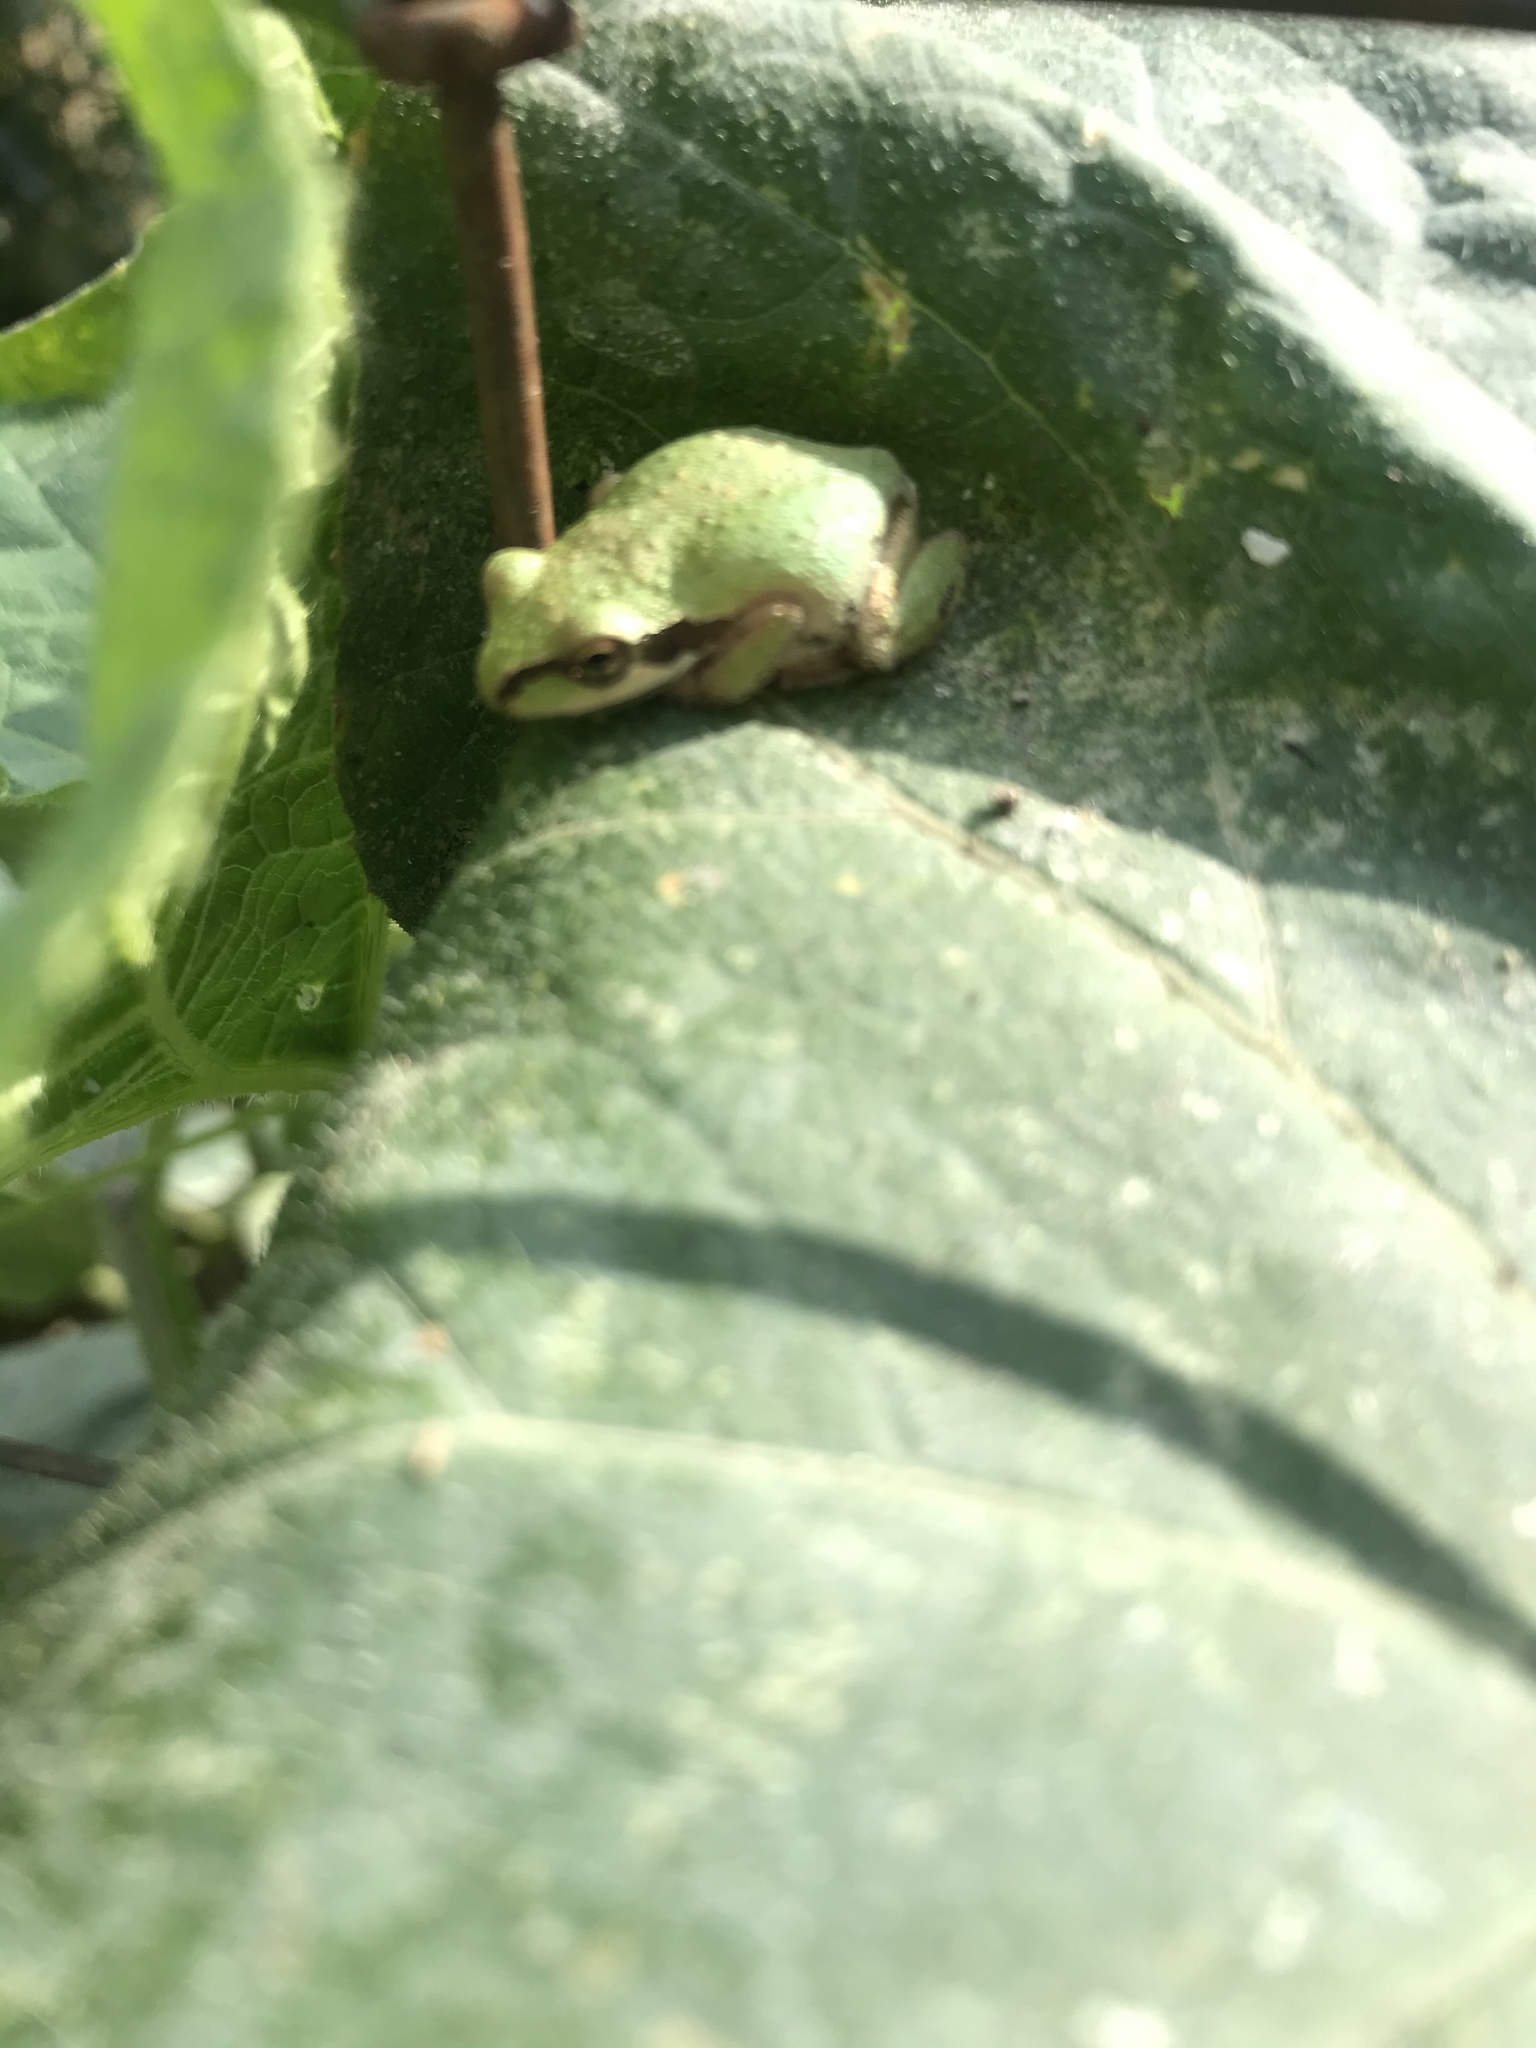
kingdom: Animalia
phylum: Chordata
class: Amphibia
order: Anura
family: Hylidae
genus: Pseudacris
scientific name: Pseudacris regilla
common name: Pacific chorus frog
